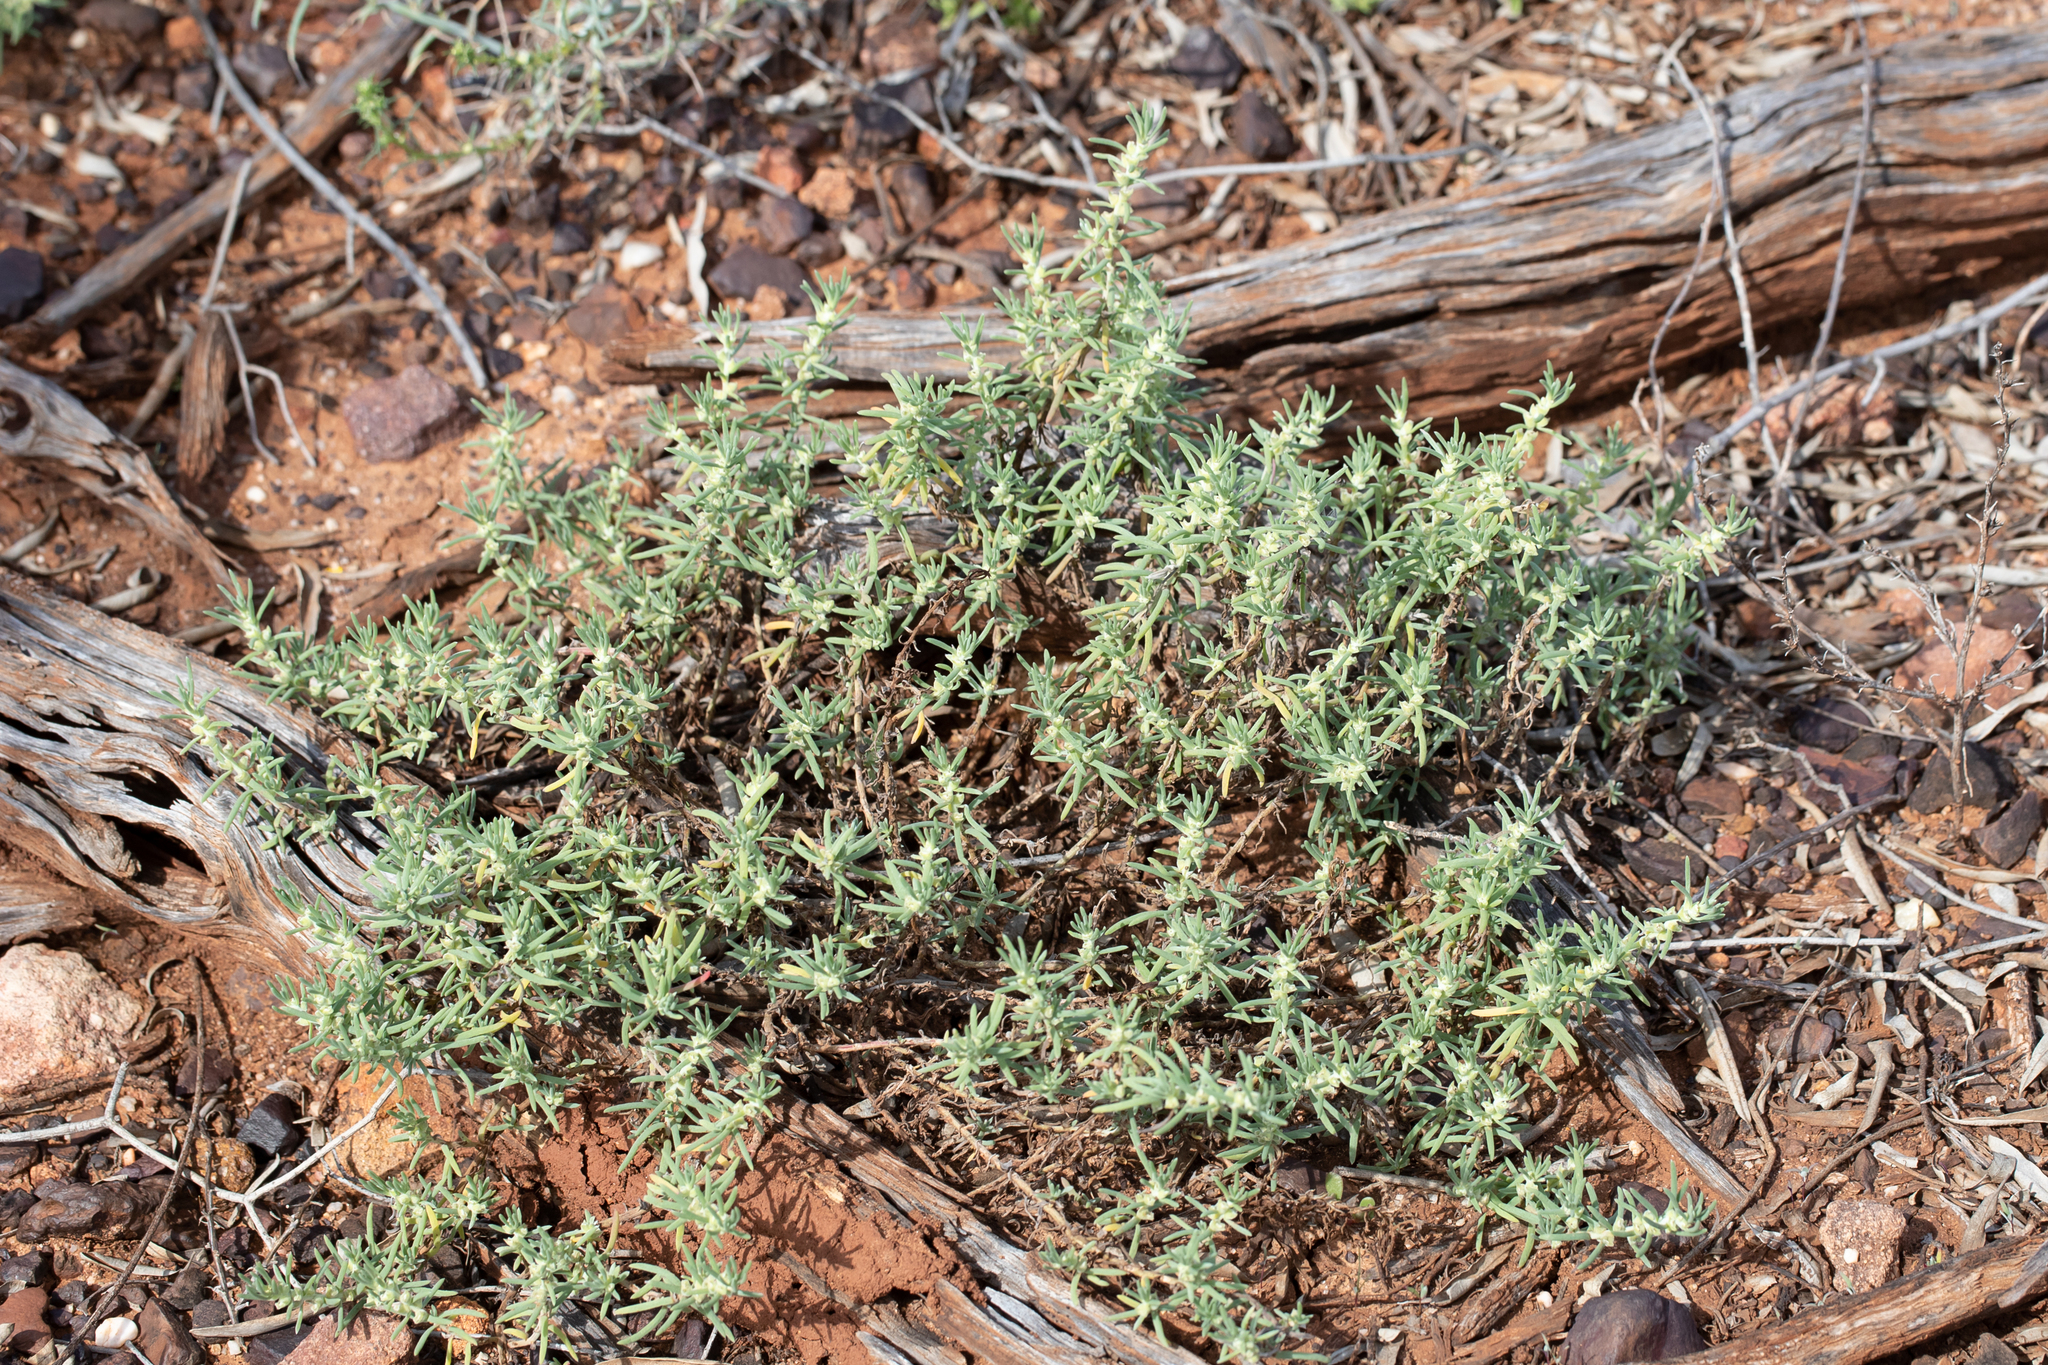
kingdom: Plantae
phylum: Tracheophyta
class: Magnoliopsida
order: Caryophyllales
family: Amaranthaceae
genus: Sclerolaena
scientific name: Sclerolaena diacantha
